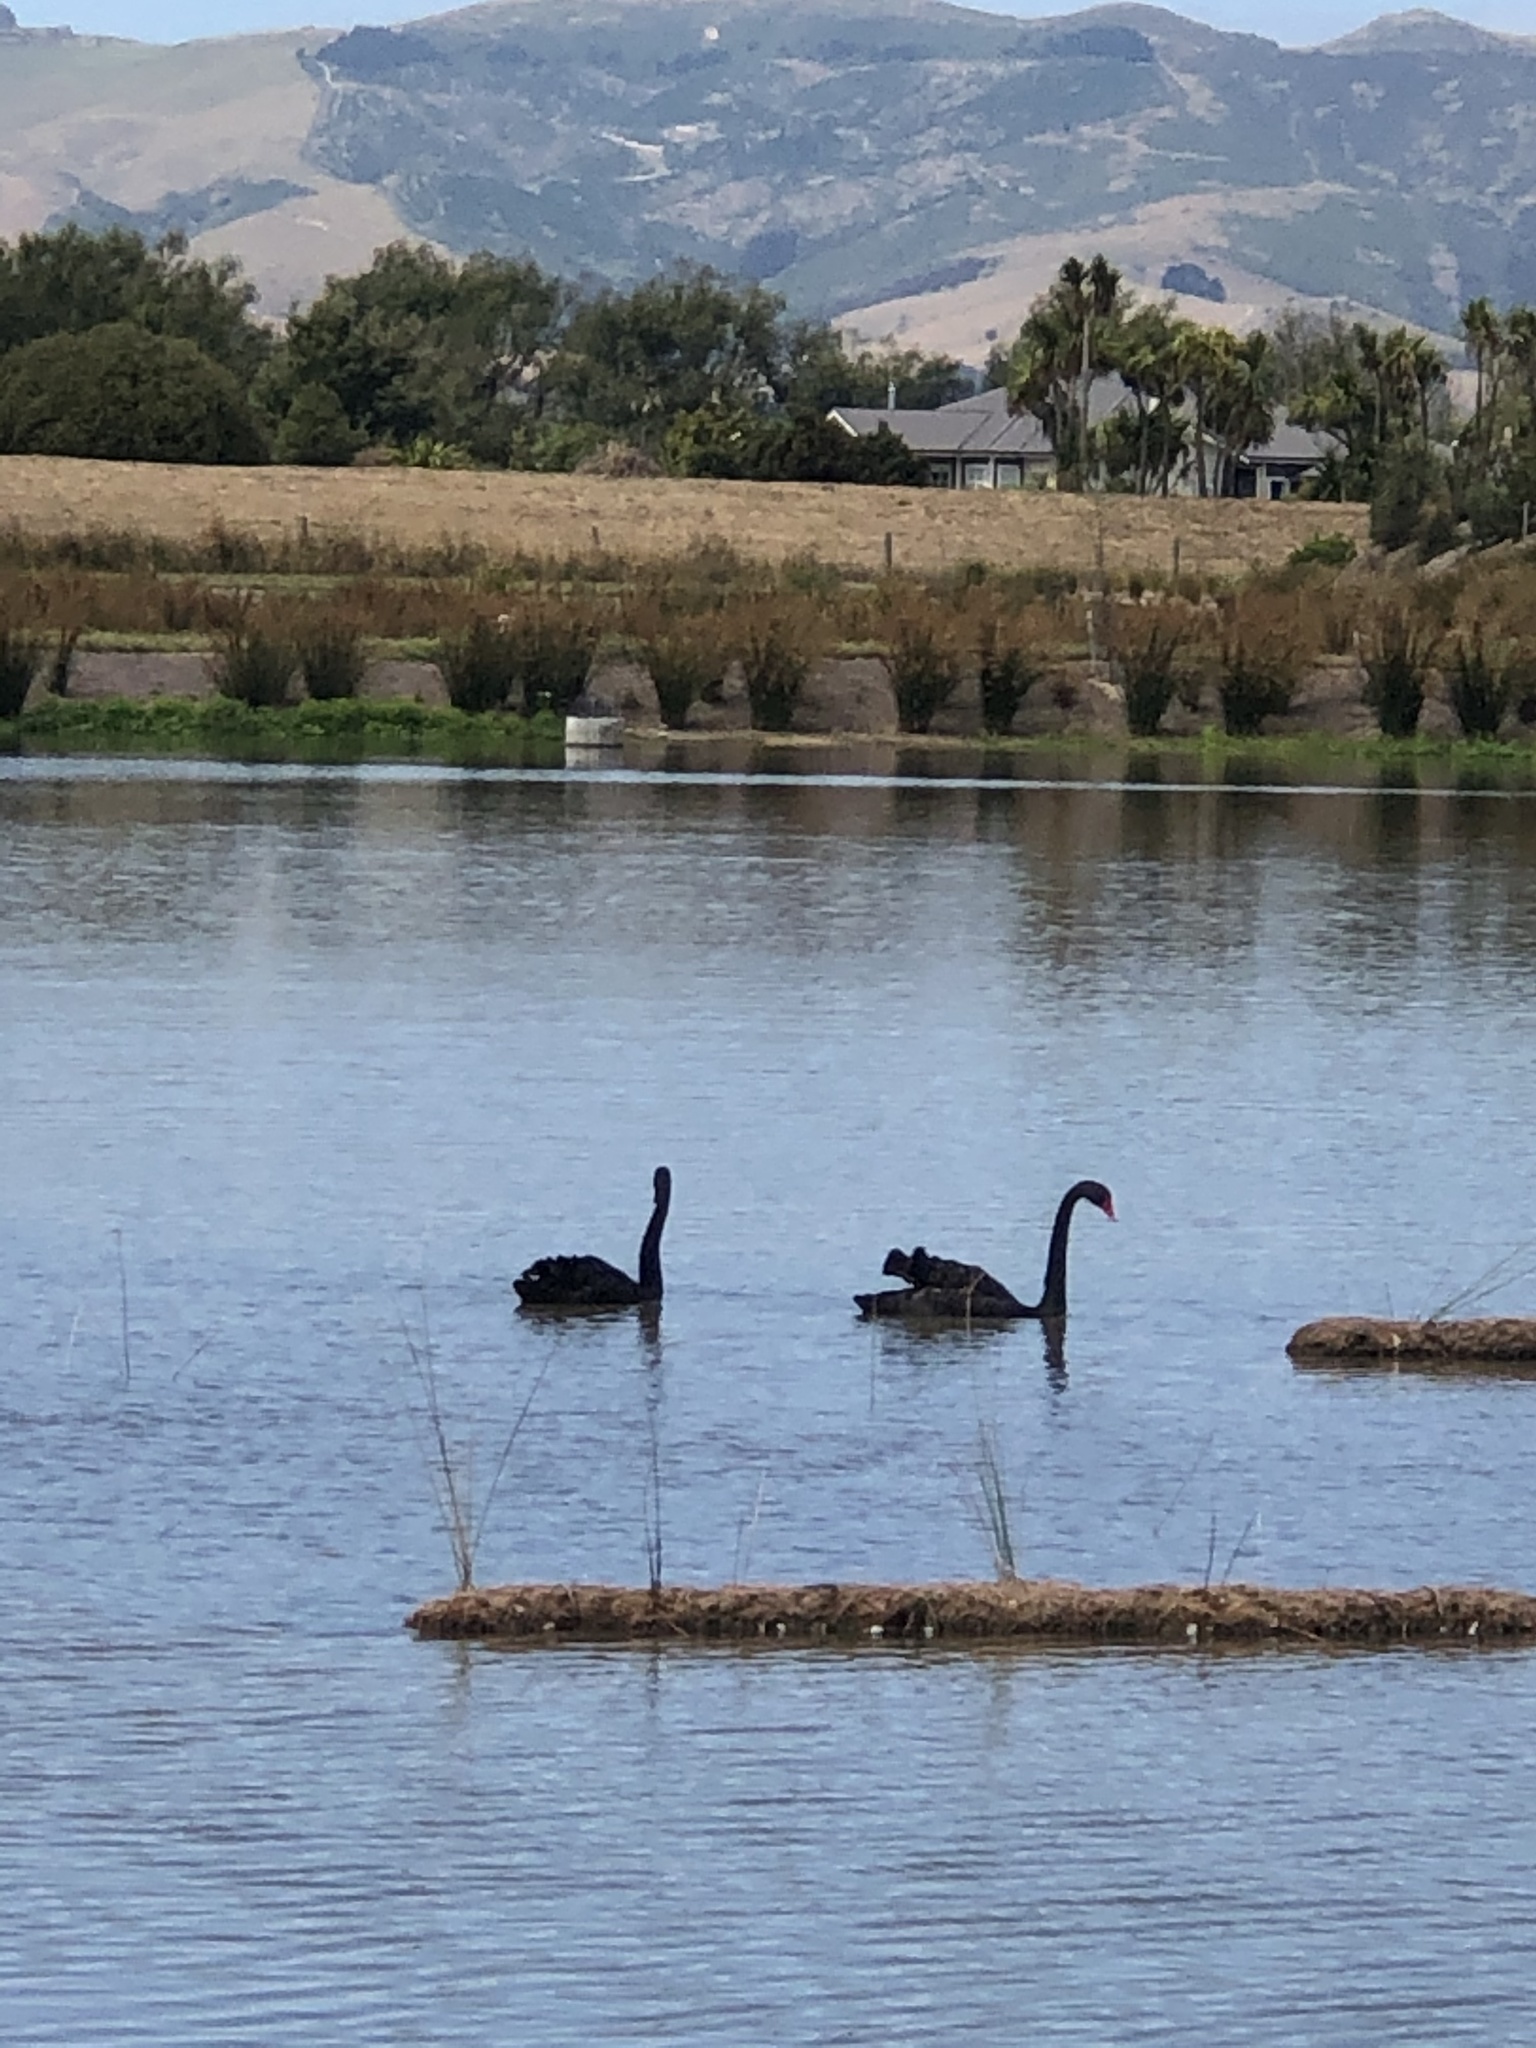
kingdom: Animalia
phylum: Chordata
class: Aves
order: Anseriformes
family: Anatidae
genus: Cygnus
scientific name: Cygnus atratus
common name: Black swan
